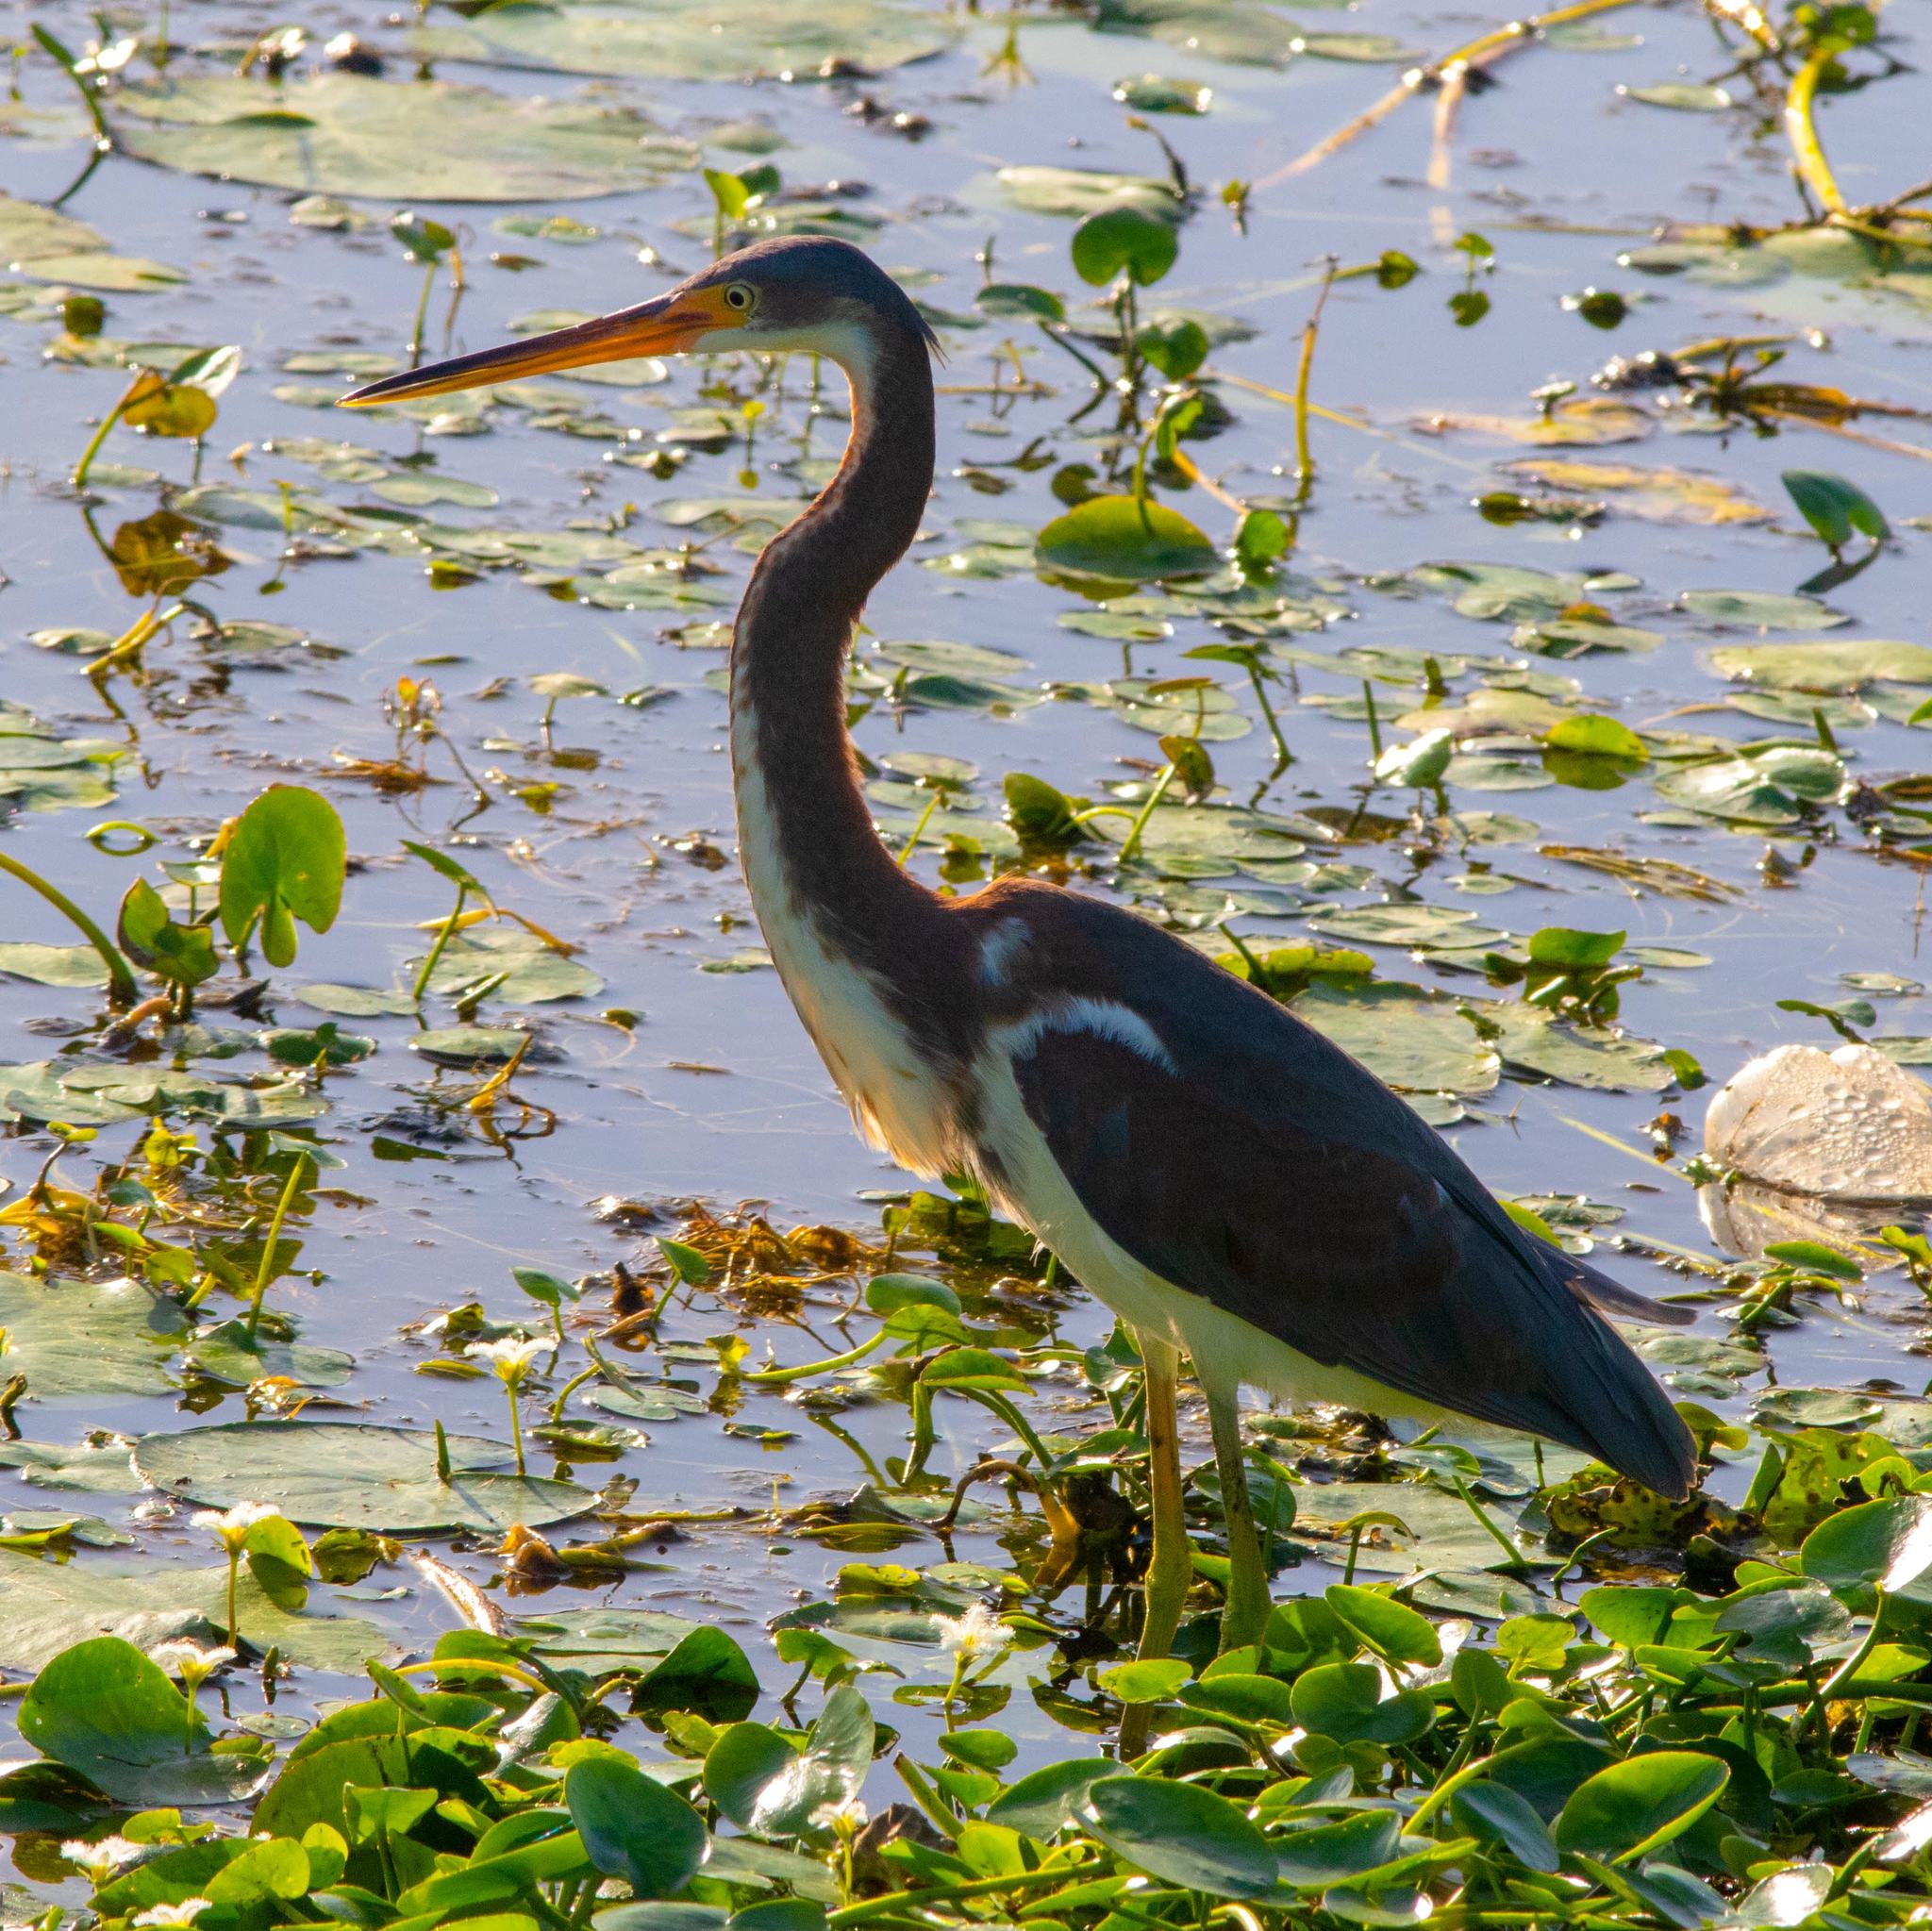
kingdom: Animalia
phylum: Chordata
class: Aves
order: Pelecaniformes
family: Ardeidae
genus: Egretta
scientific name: Egretta tricolor
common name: Tricolored heron
